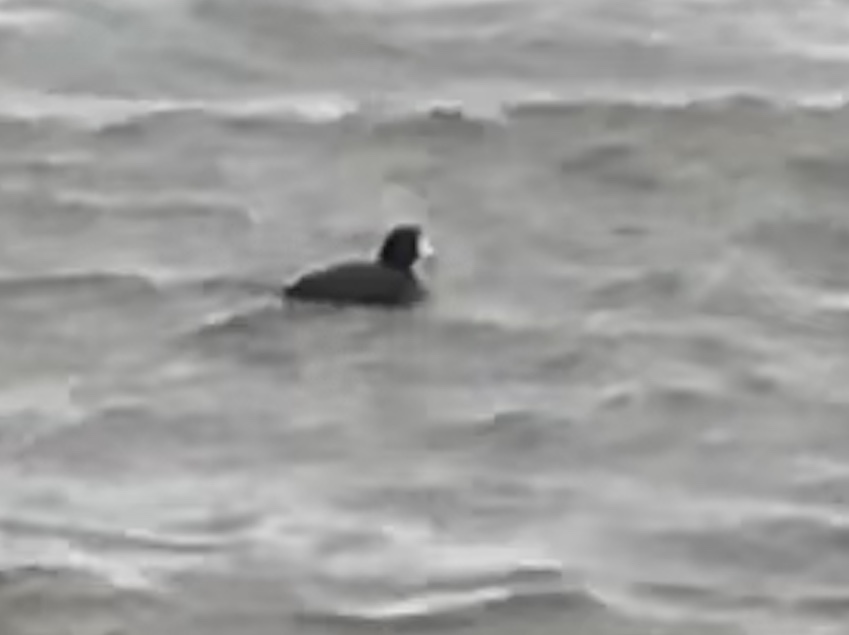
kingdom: Animalia
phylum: Chordata
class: Aves
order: Gruiformes
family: Rallidae
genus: Fulica
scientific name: Fulica americana
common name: American coot
